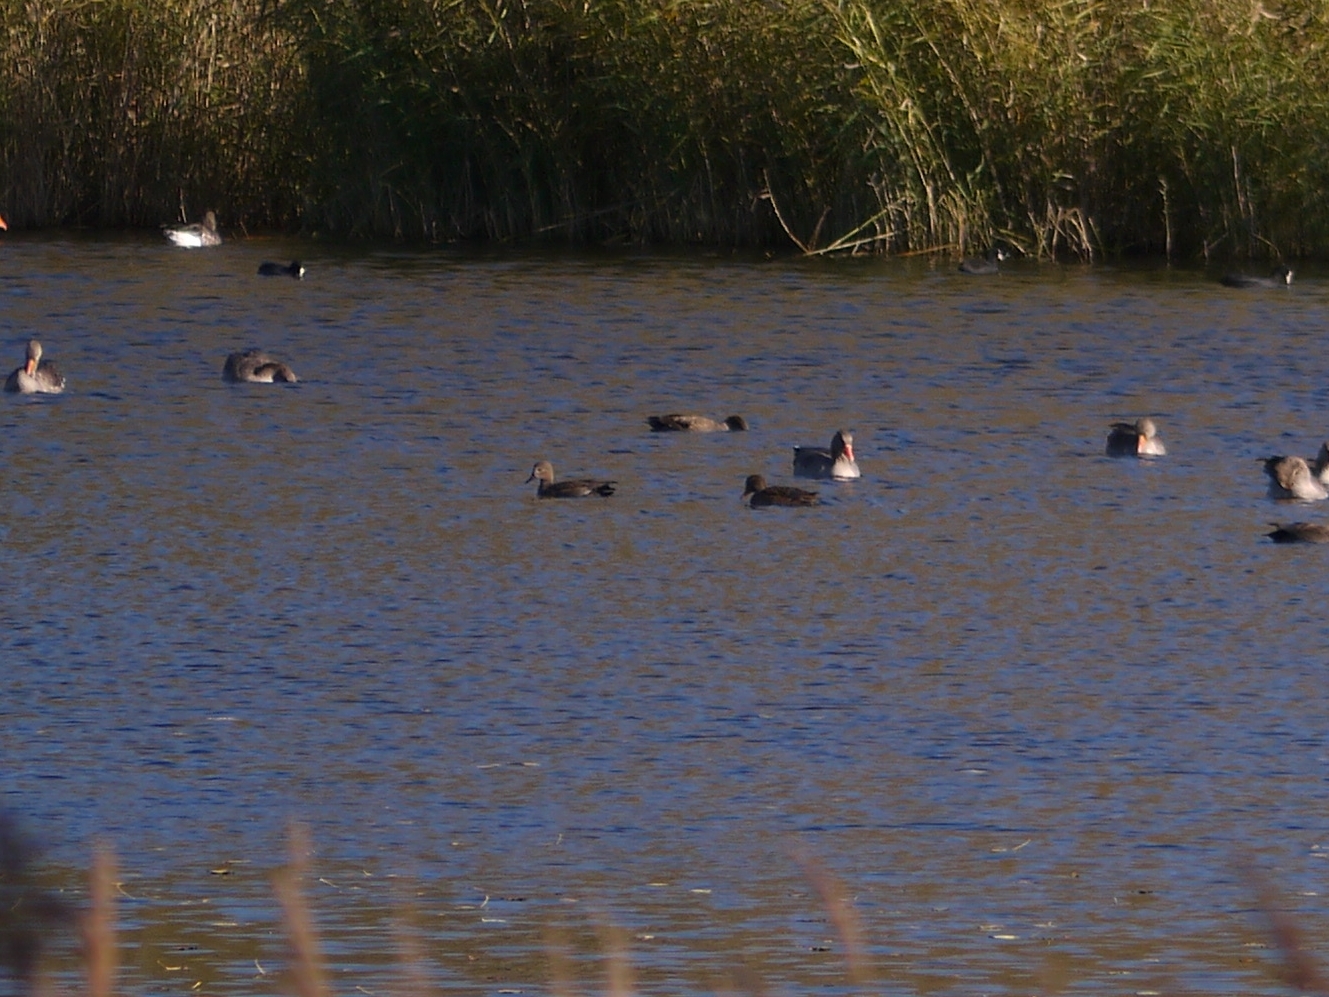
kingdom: Animalia
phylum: Chordata
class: Aves
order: Anseriformes
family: Anatidae
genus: Mareca
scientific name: Mareca strepera
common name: Gadwall
